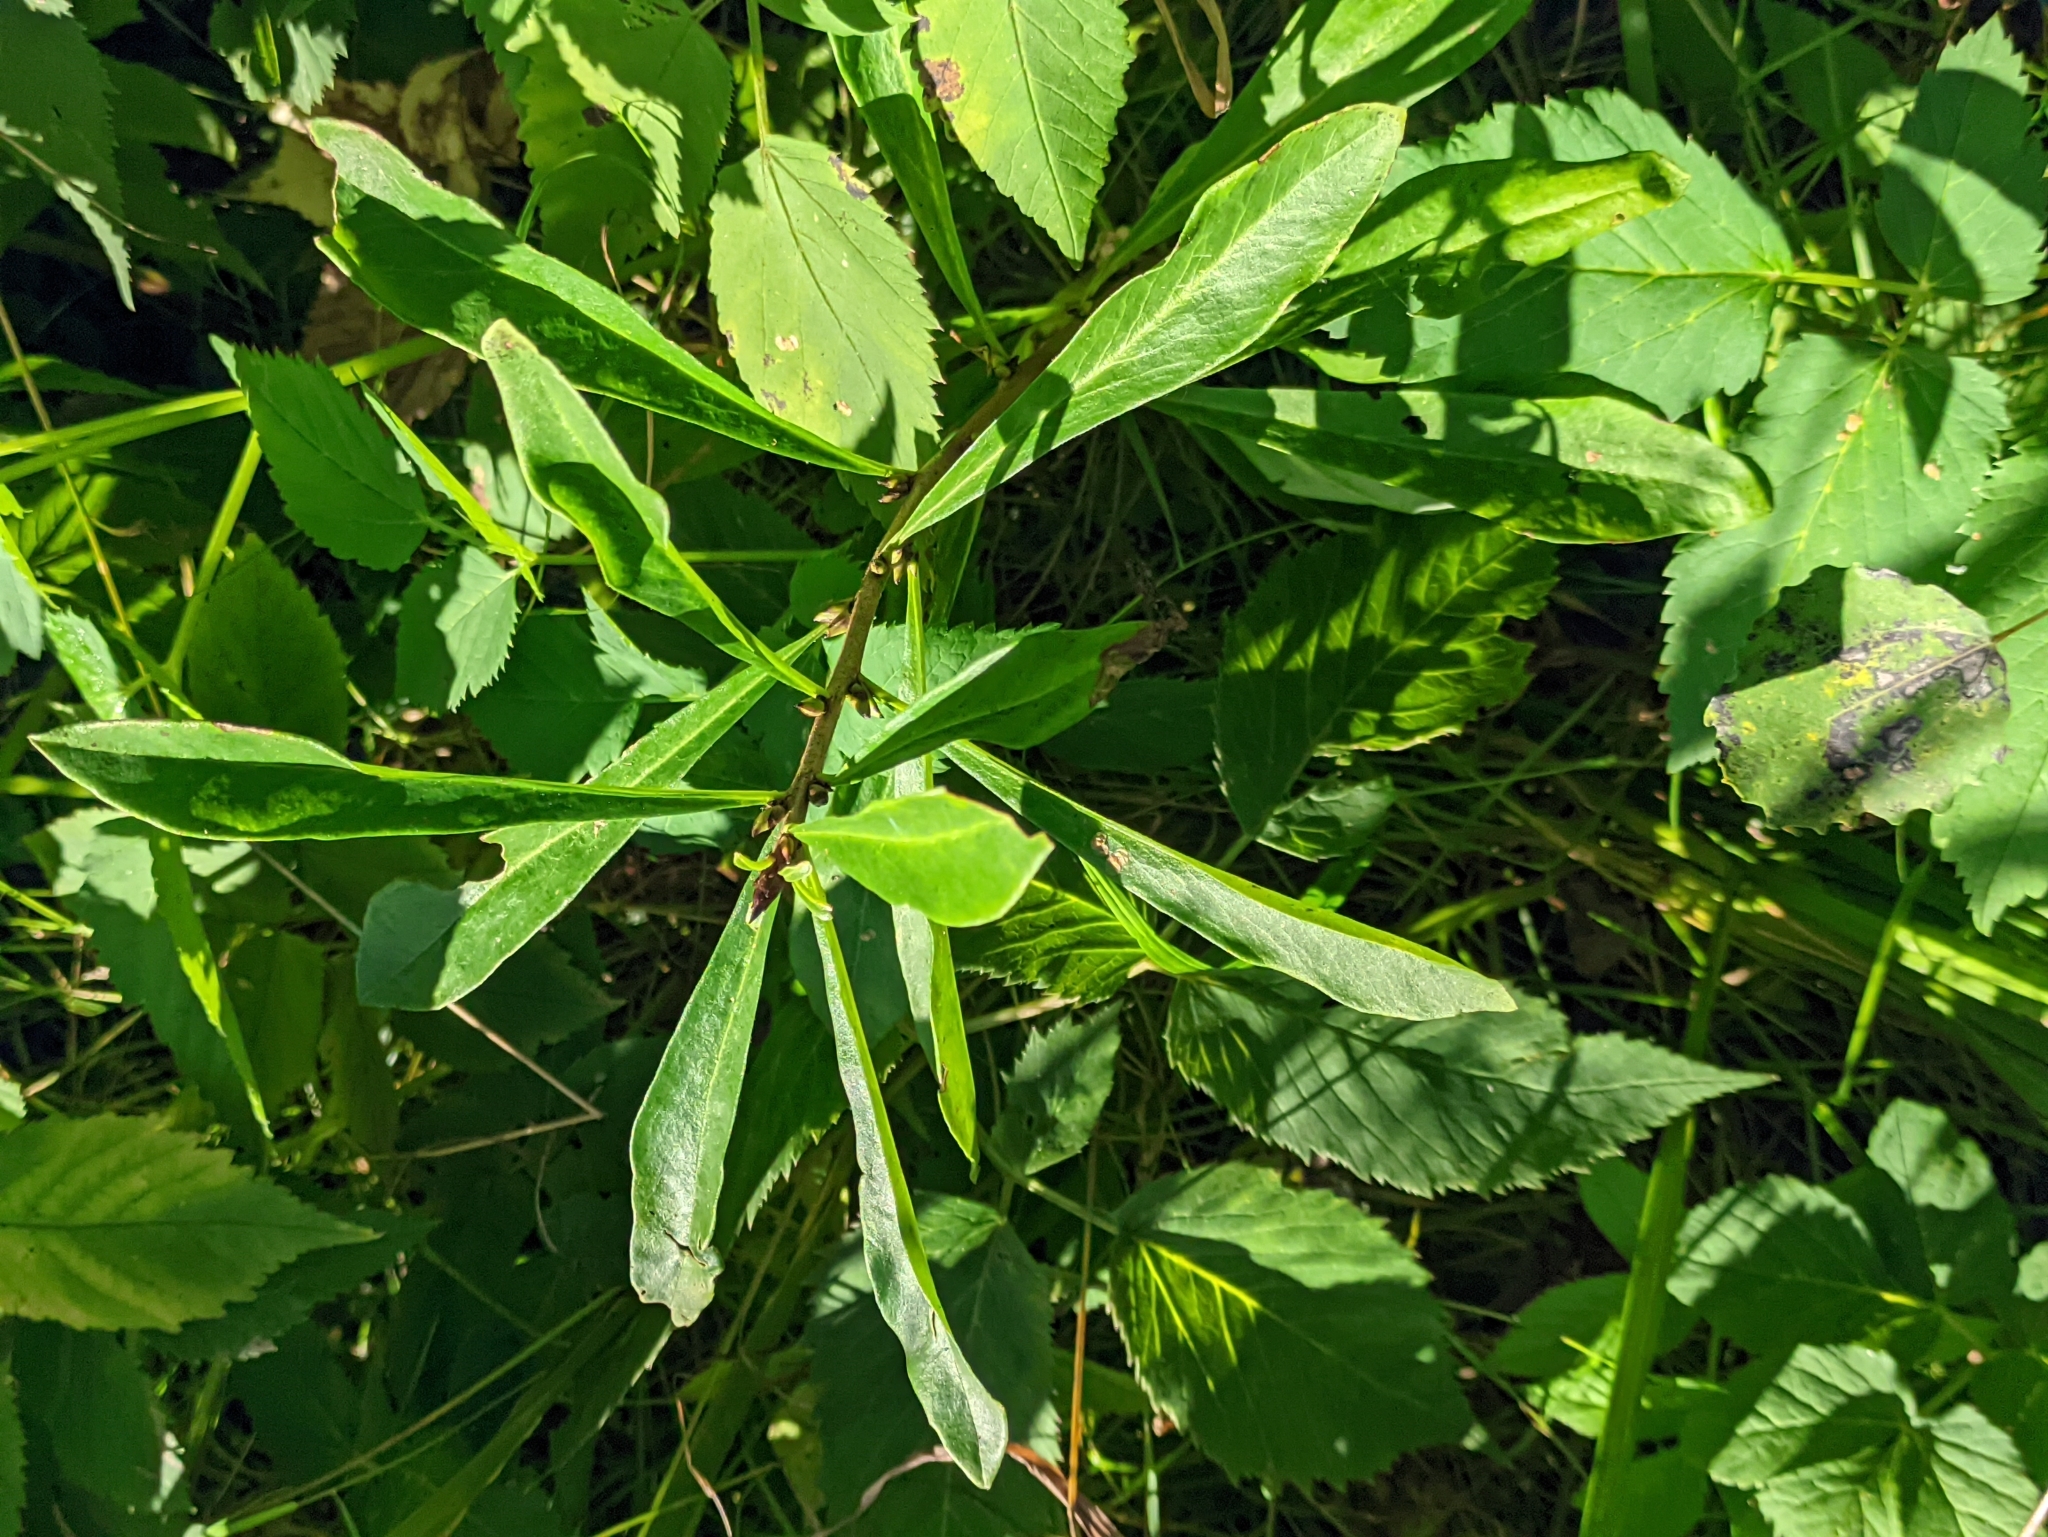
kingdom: Plantae
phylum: Tracheophyta
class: Magnoliopsida
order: Malvales
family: Thymelaeaceae
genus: Daphne
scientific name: Daphne mezereum
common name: Mezereon
